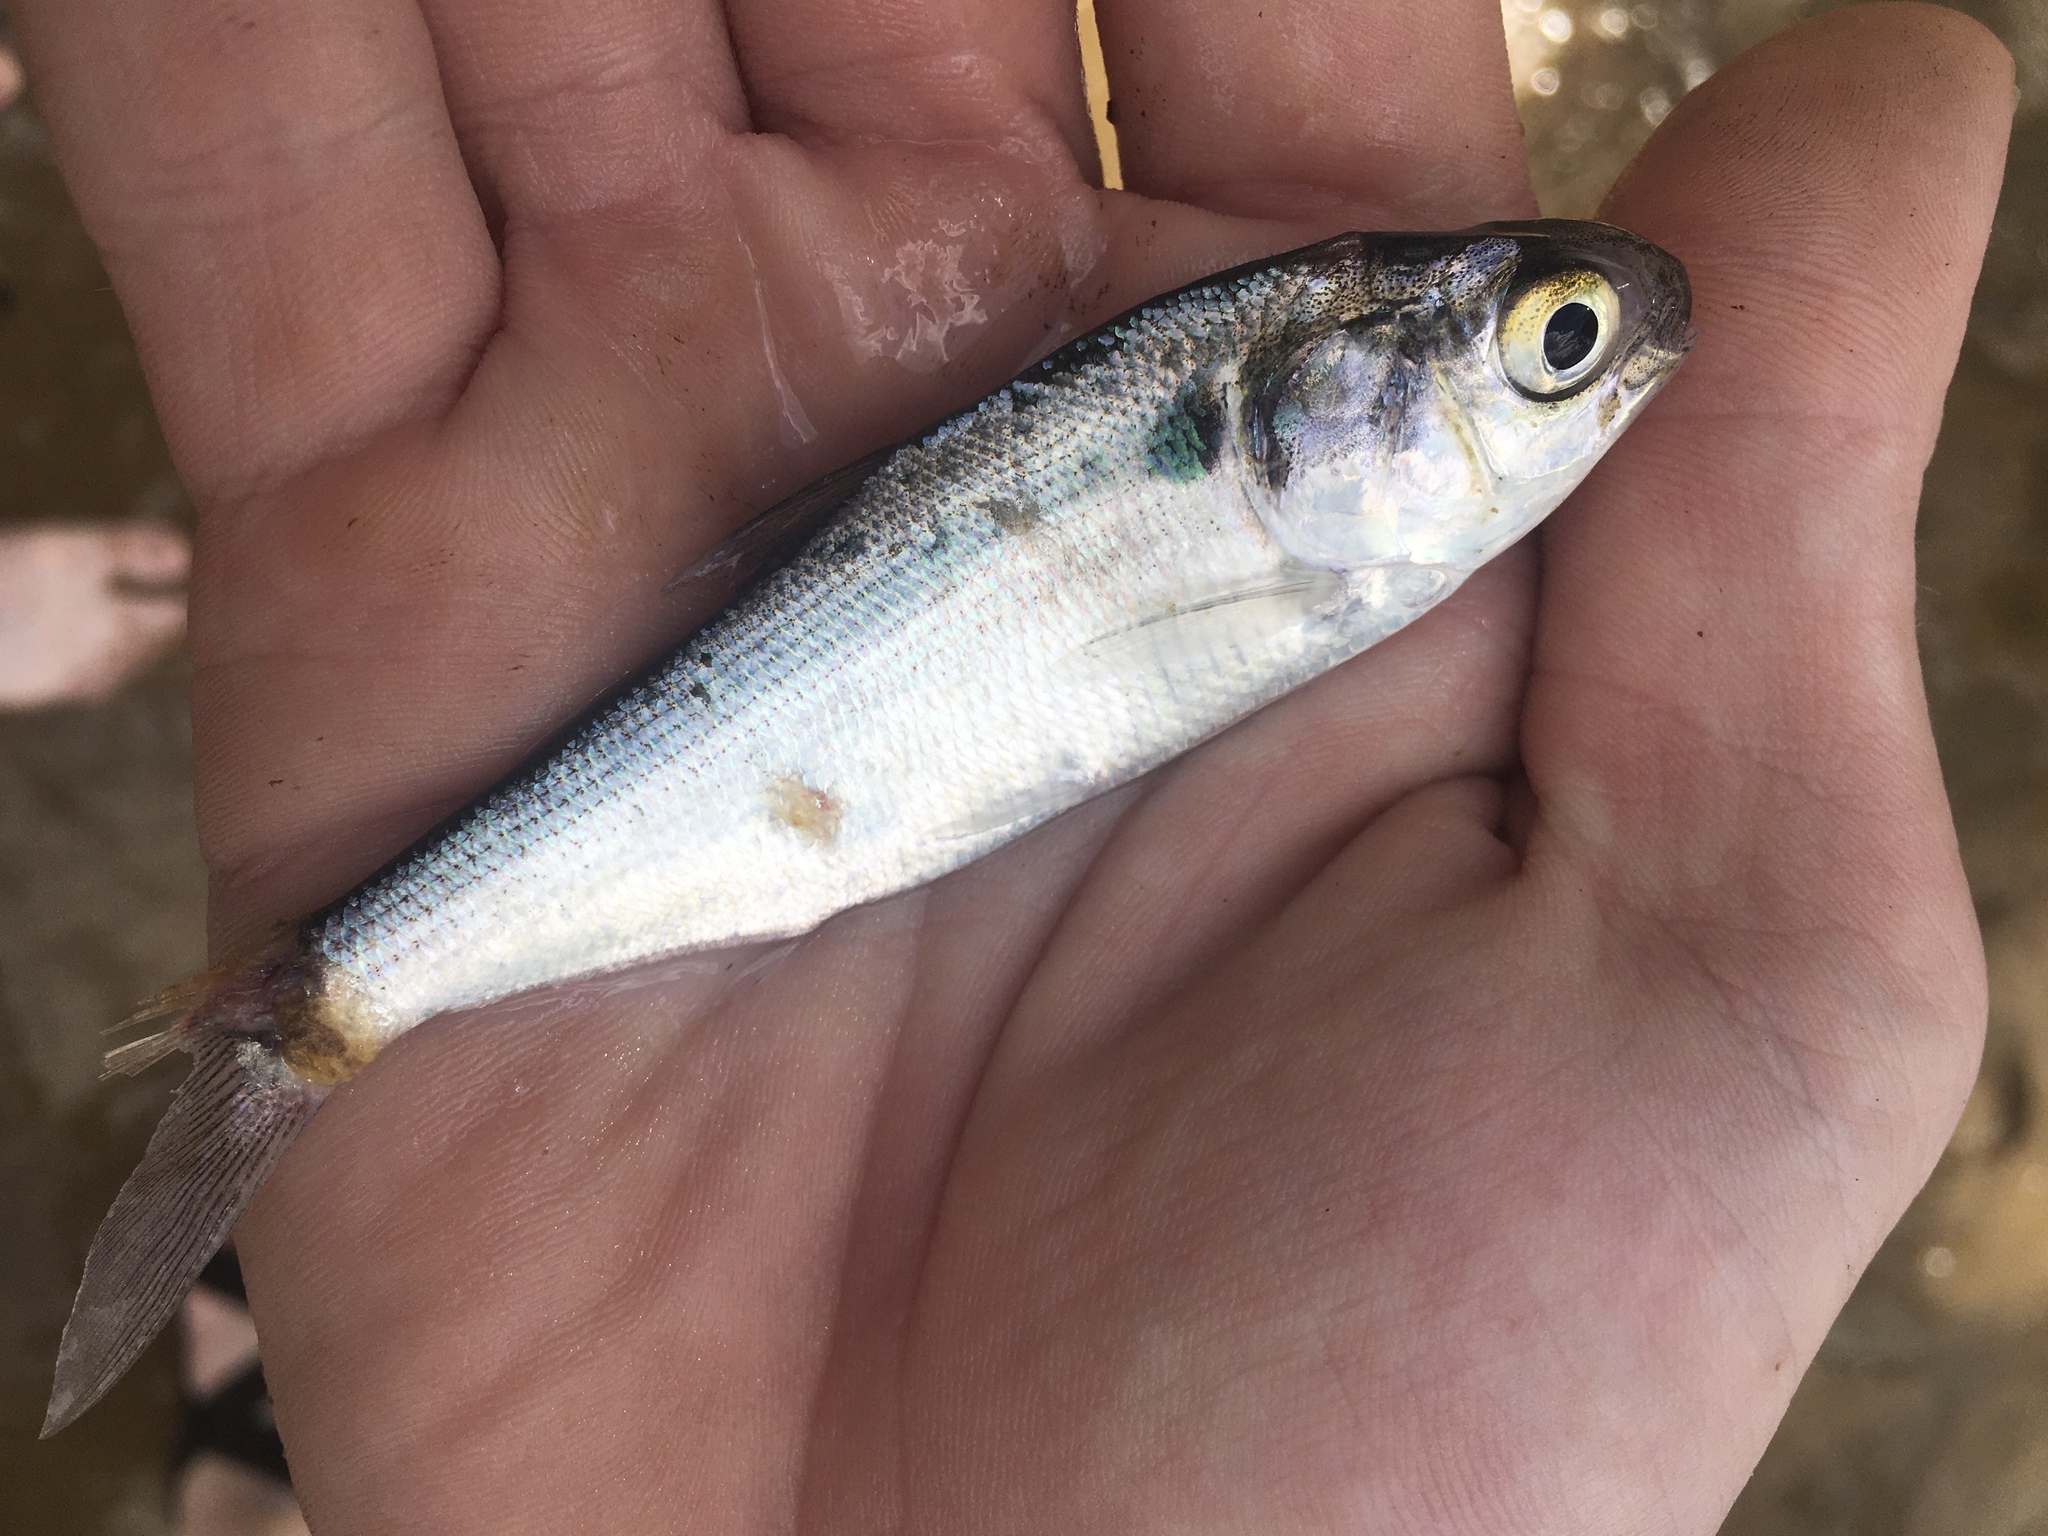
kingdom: Animalia
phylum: Chordata
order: Clupeiformes
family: Clupeidae
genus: Dorosoma
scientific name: Dorosoma cepedianum
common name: Gizzard shad
